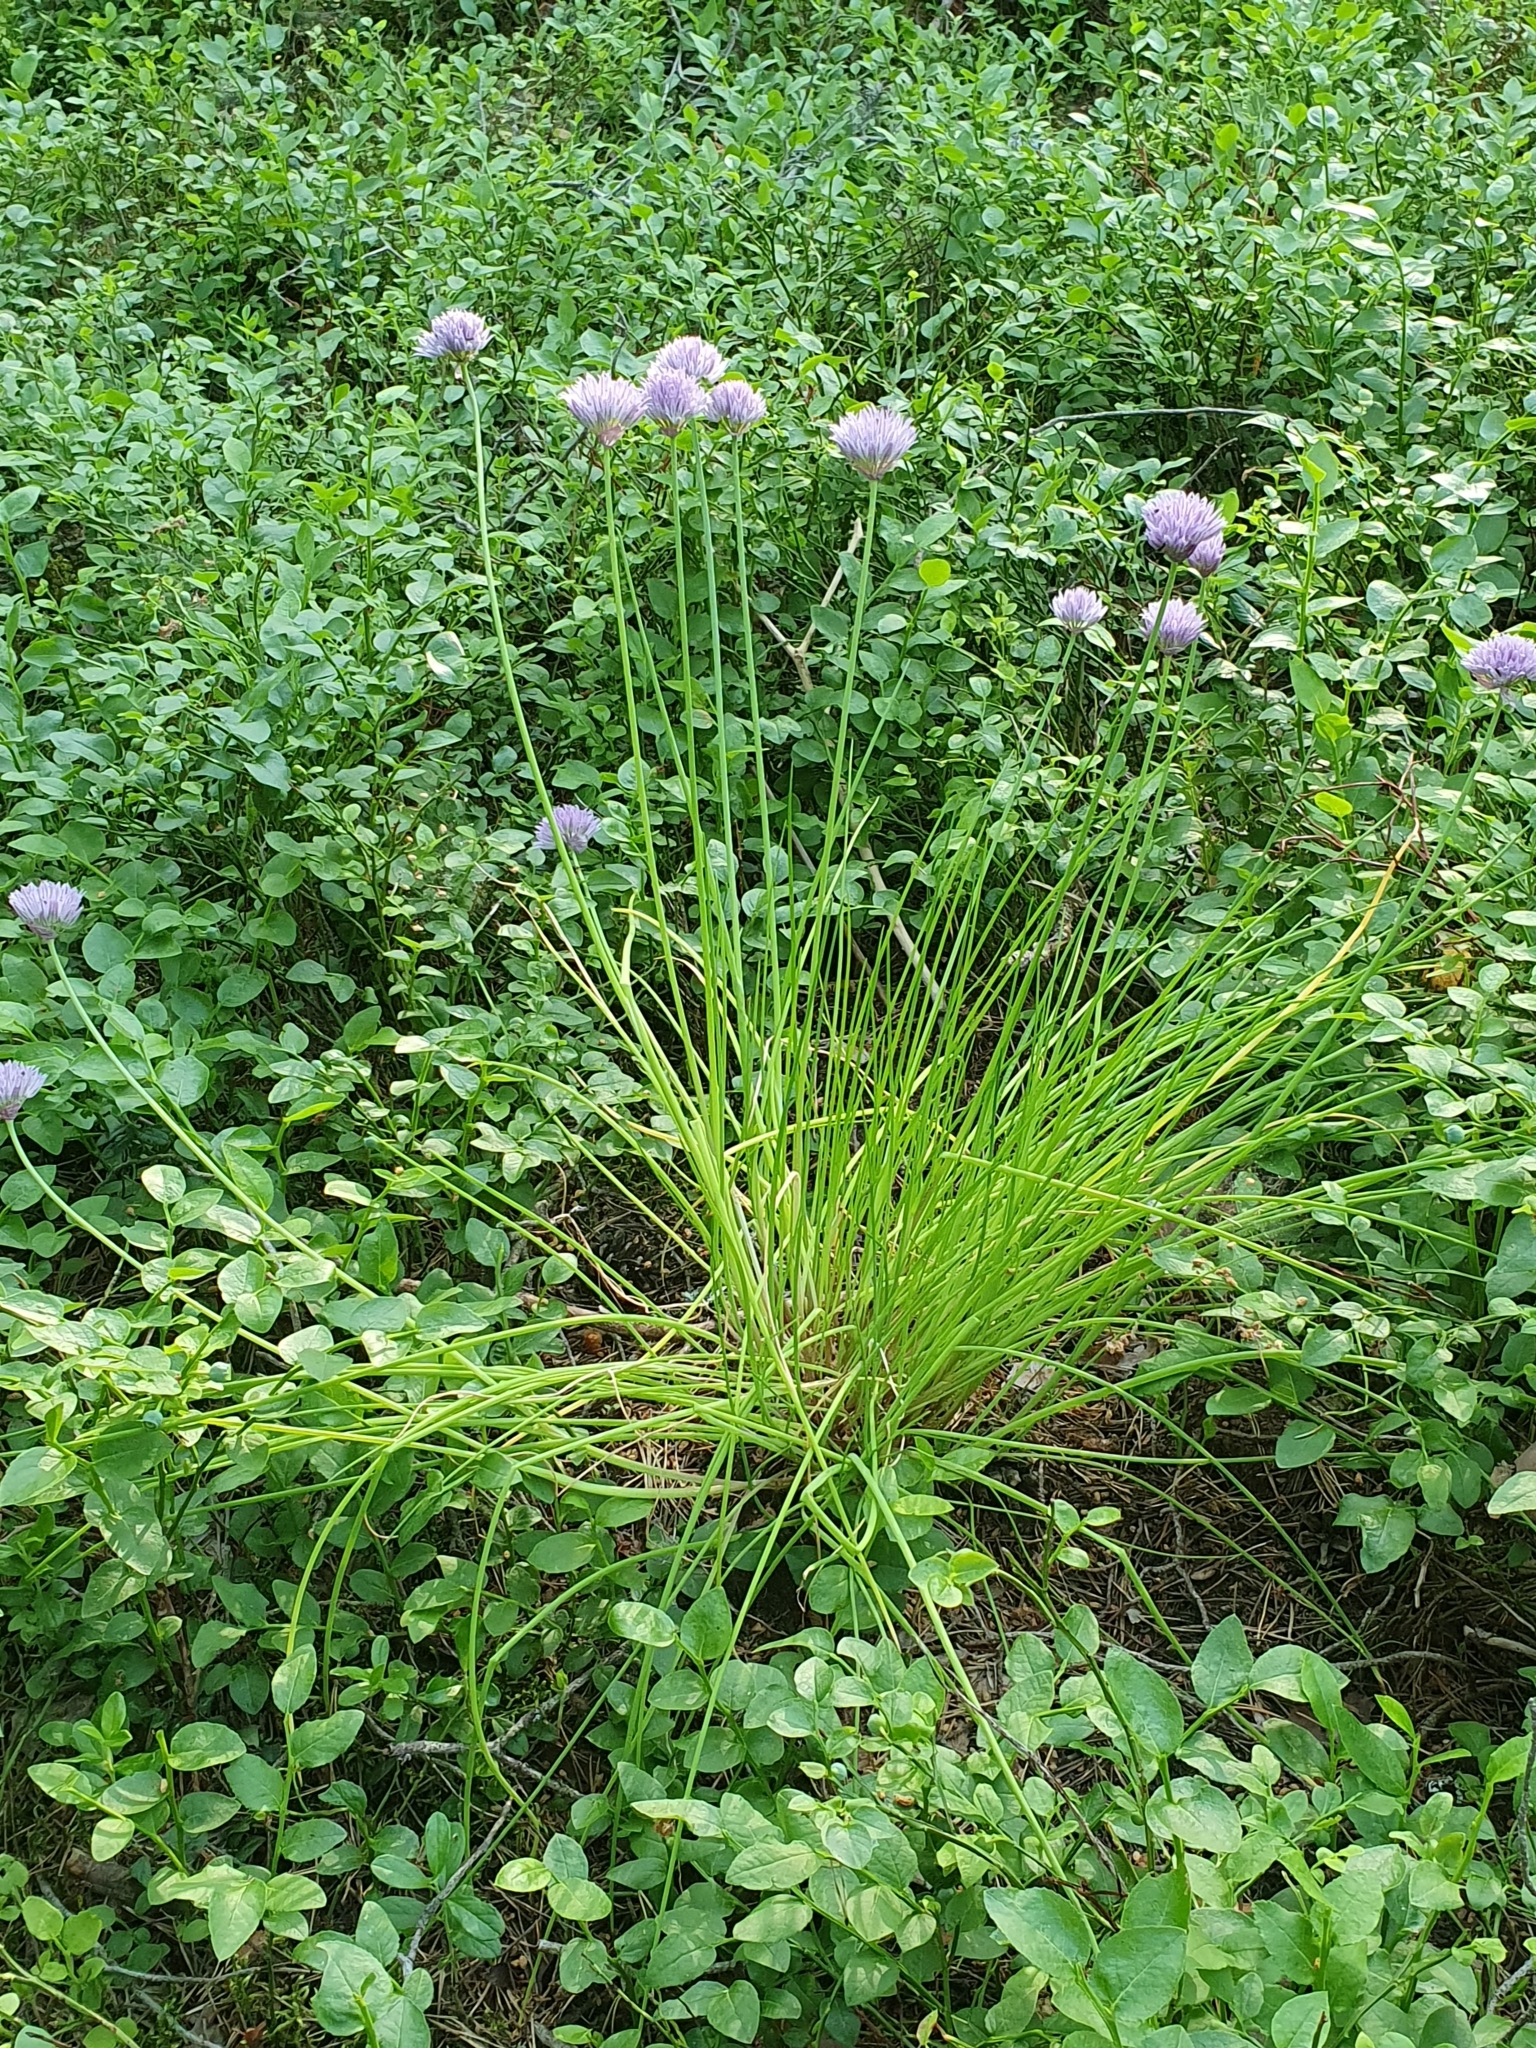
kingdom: Plantae
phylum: Tracheophyta
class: Liliopsida
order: Asparagales
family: Amaryllidaceae
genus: Allium
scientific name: Allium schoenoprasum
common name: Chives
